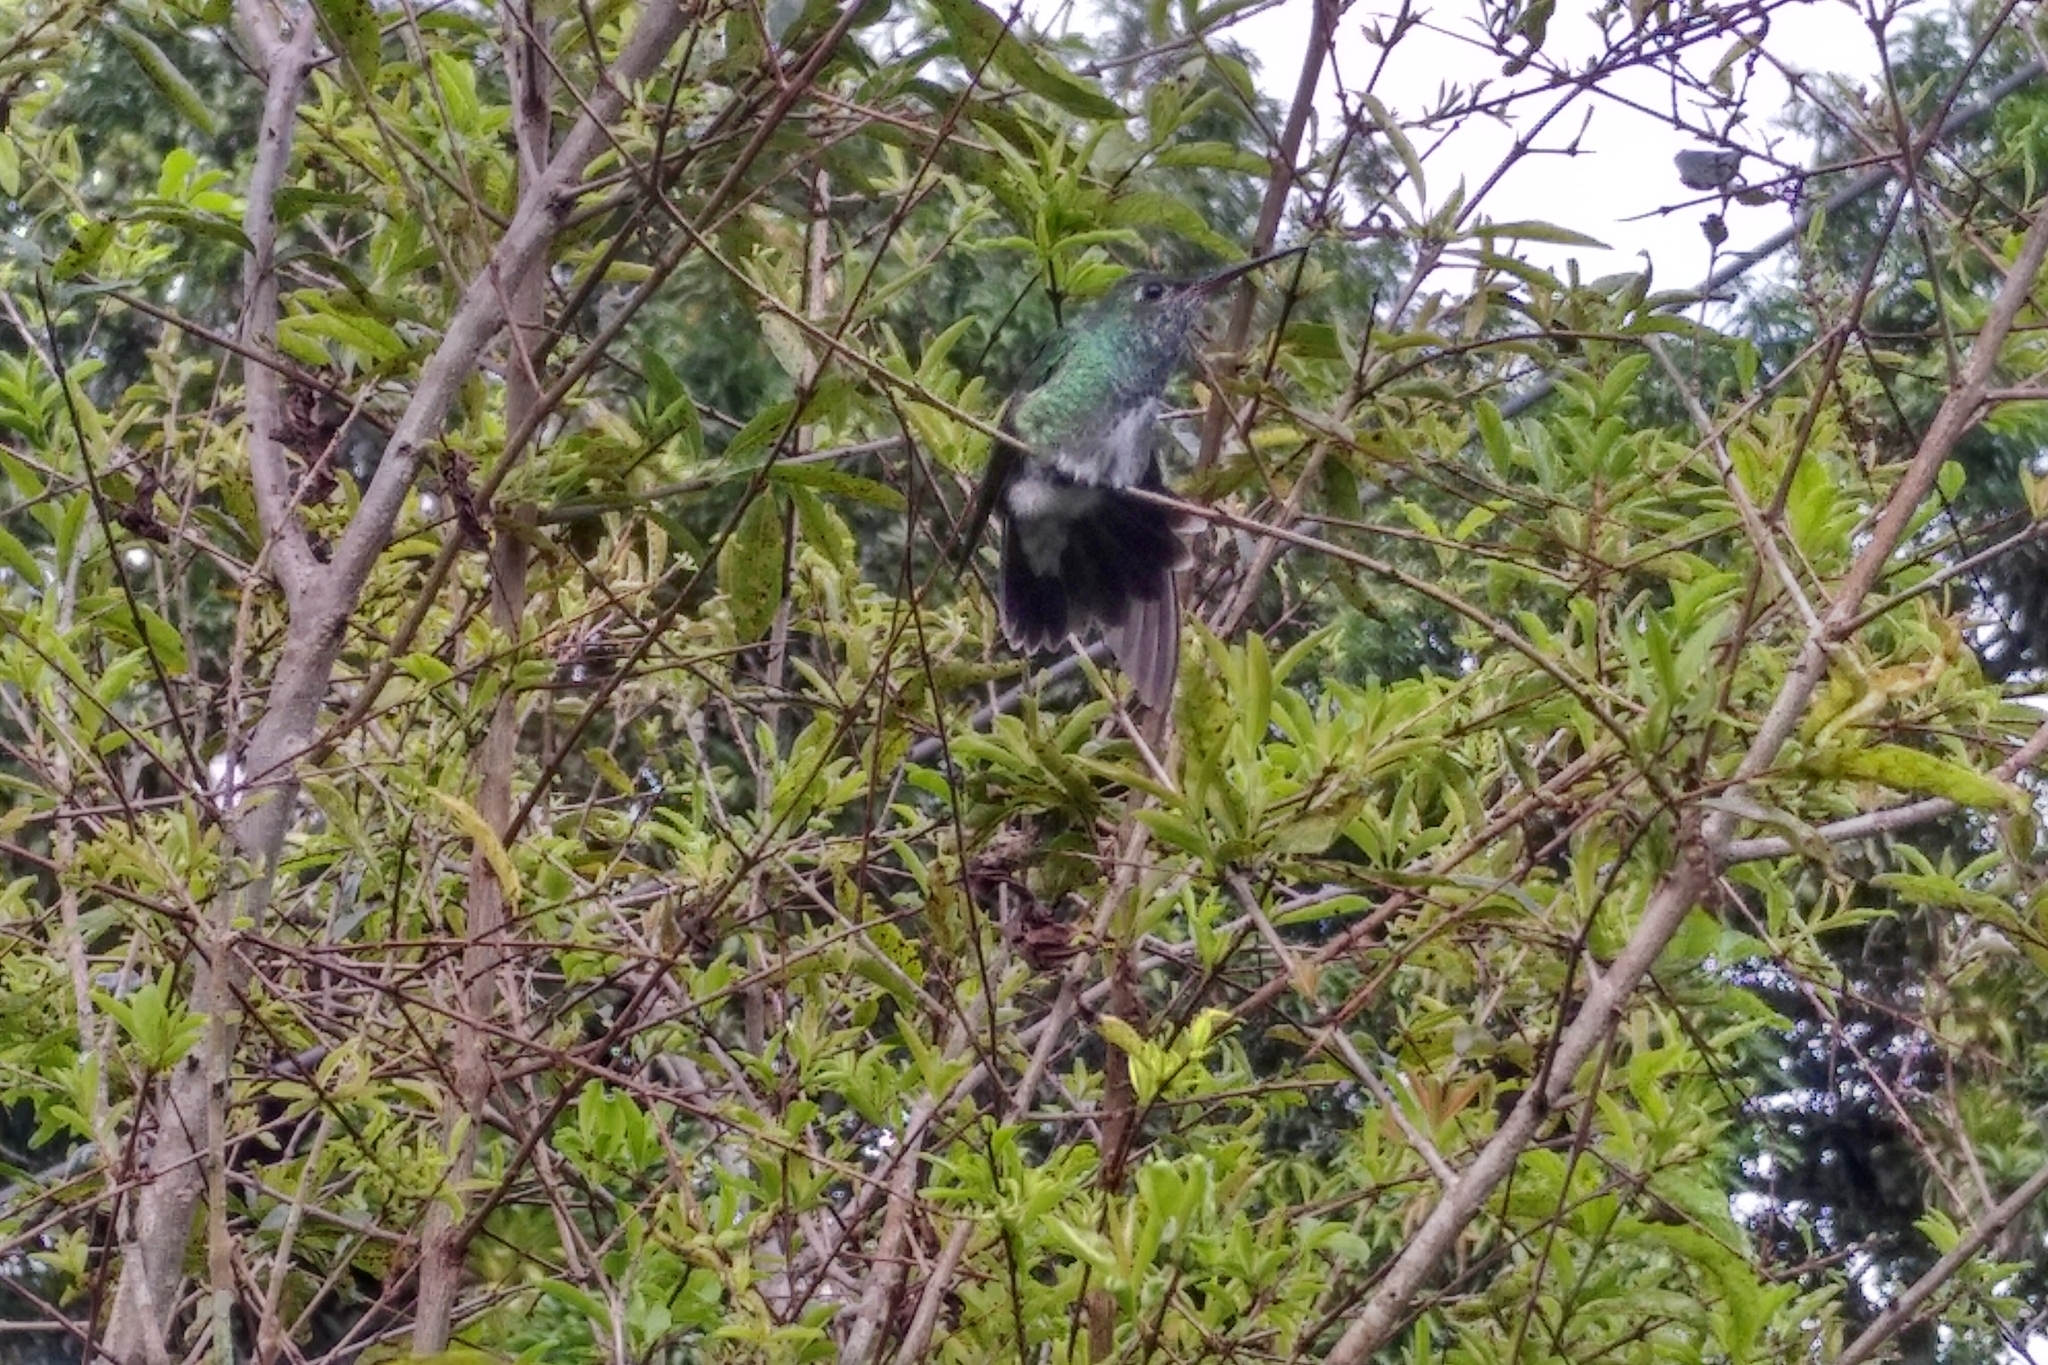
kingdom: Animalia
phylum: Chordata
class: Aves
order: Apodiformes
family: Trochilidae
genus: Chionomesa
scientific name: Chionomesa fimbriata
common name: Glittering-throated emerald
